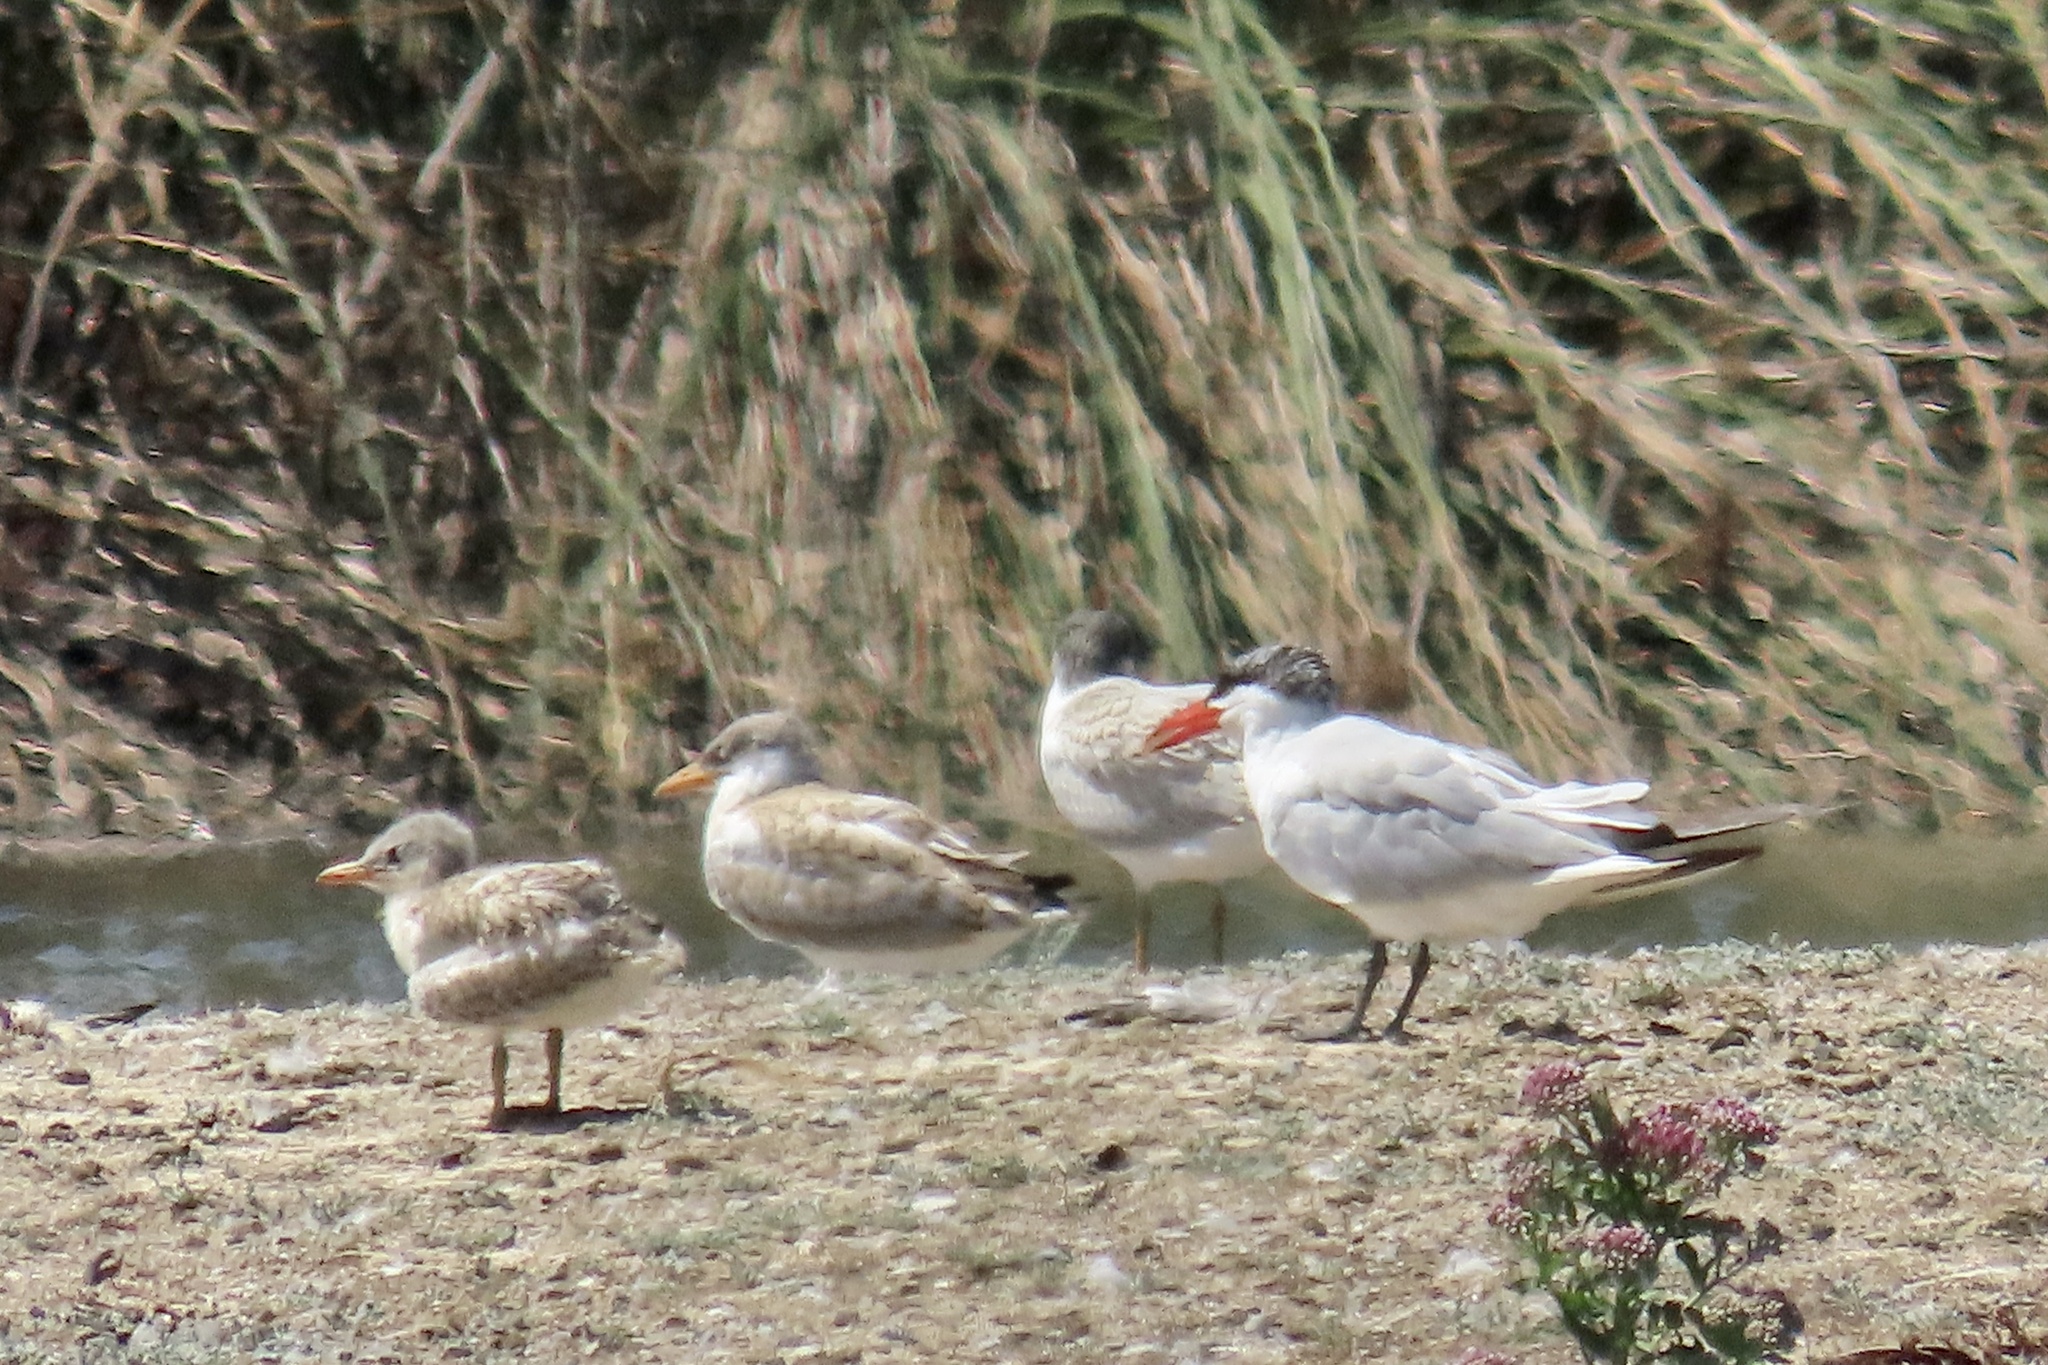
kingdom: Animalia
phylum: Chordata
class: Aves
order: Charadriiformes
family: Laridae
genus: Hydroprogne
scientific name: Hydroprogne caspia
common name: Caspian tern
